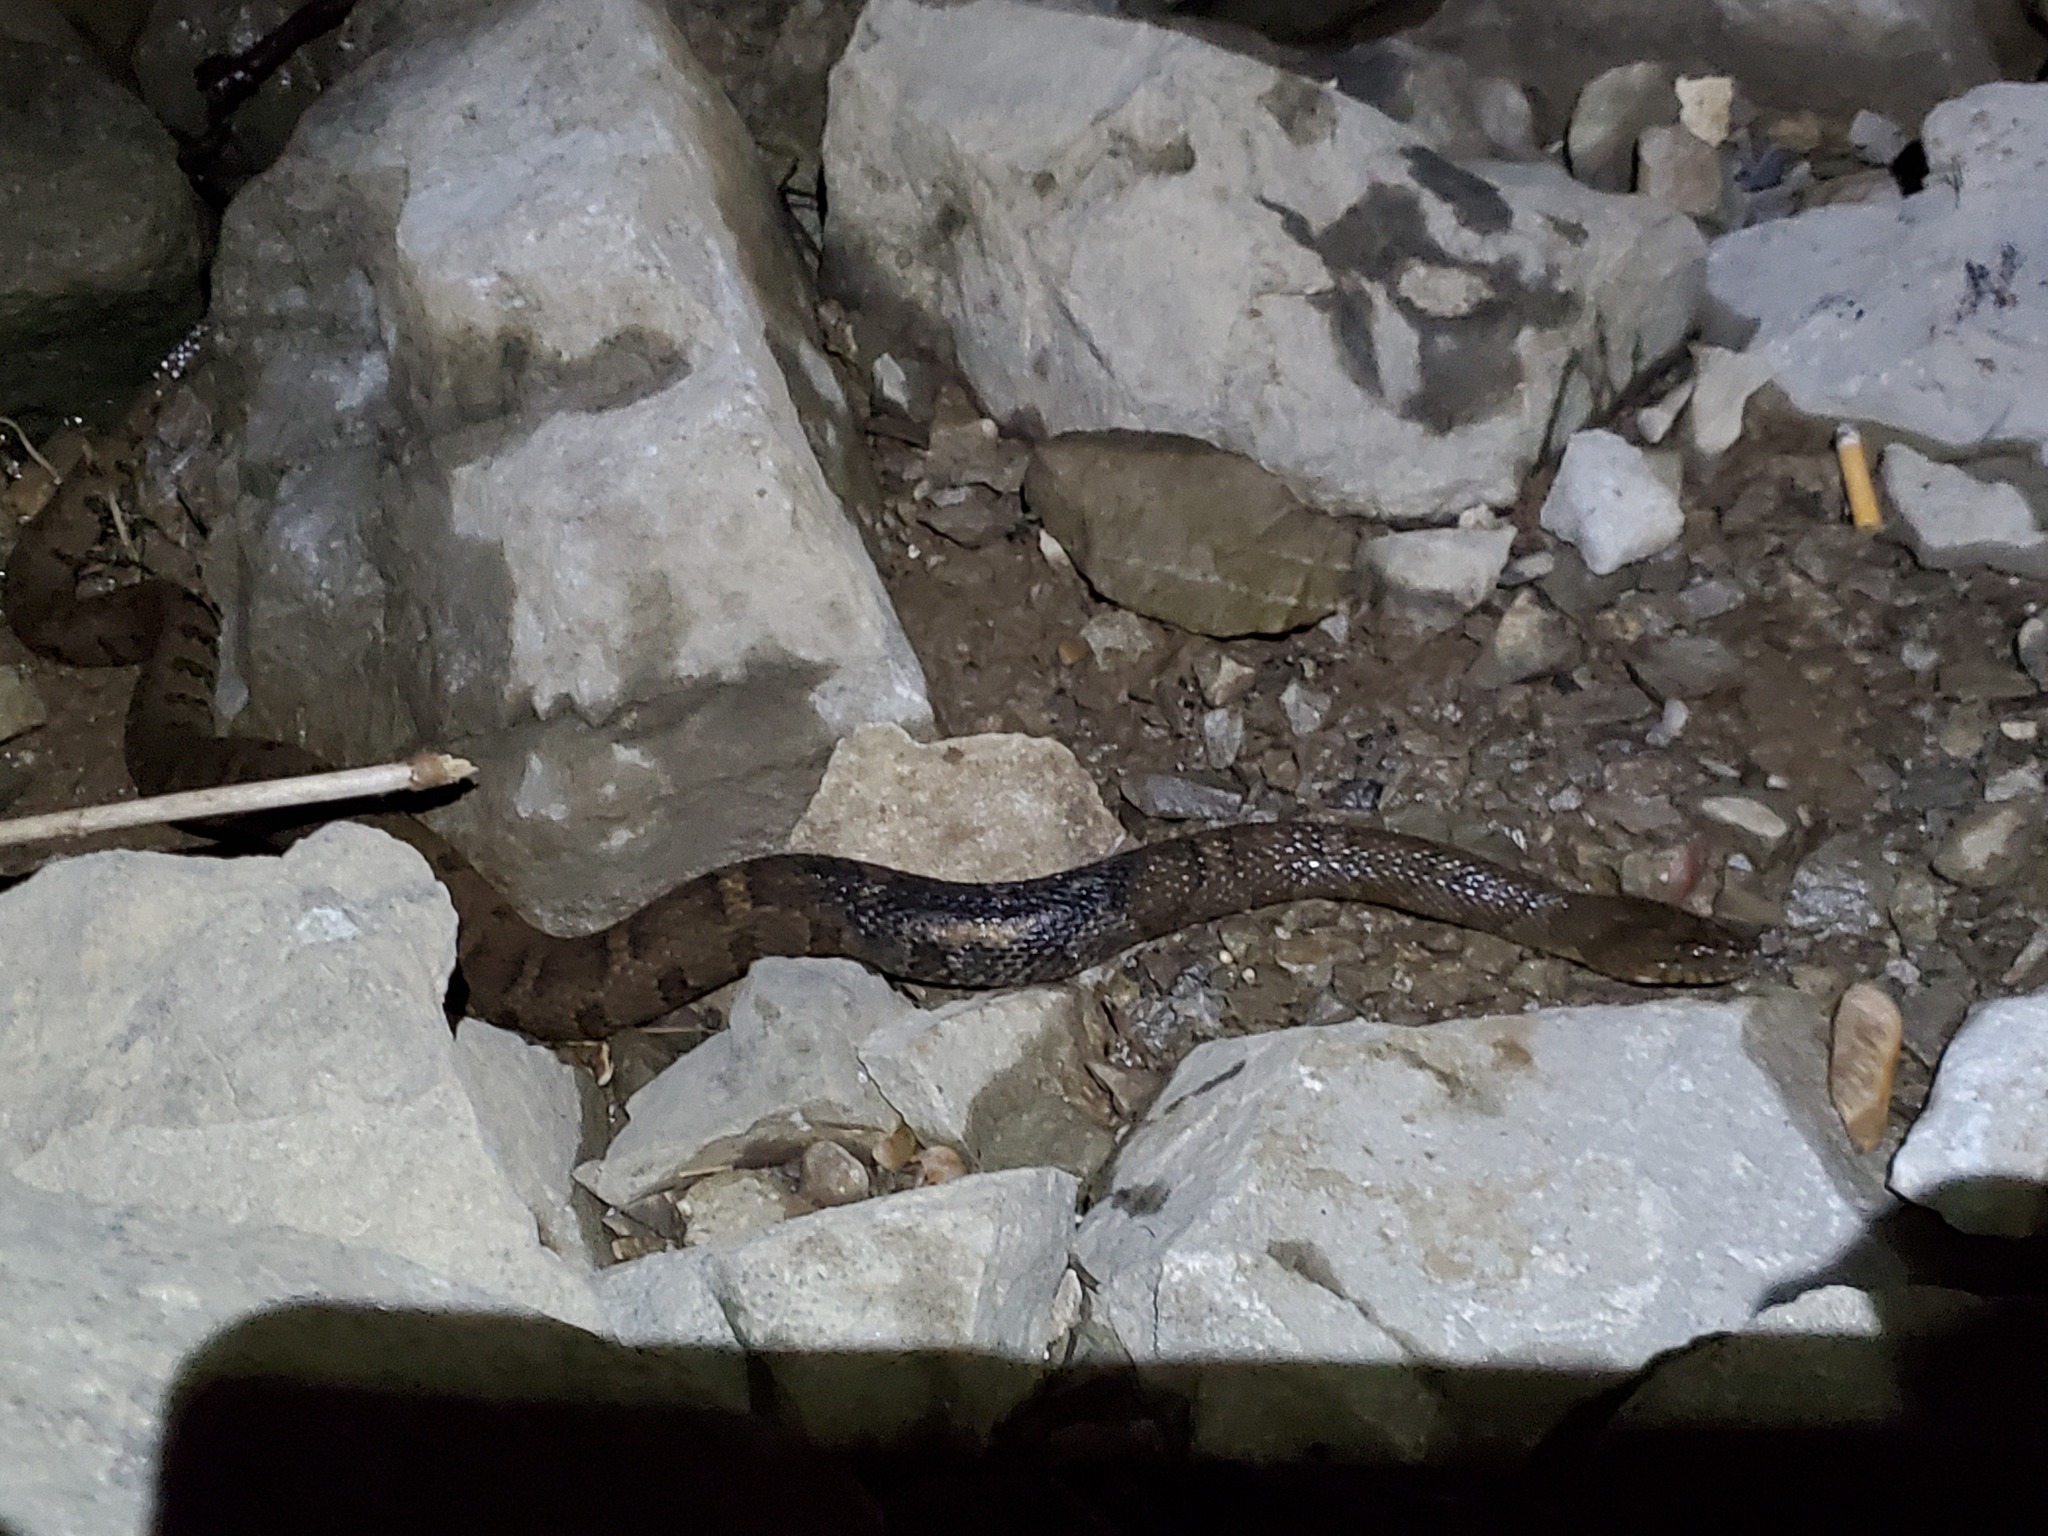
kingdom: Animalia
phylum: Chordata
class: Squamata
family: Colubridae
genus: Nerodia
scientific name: Nerodia sipedon
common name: Northern water snake
